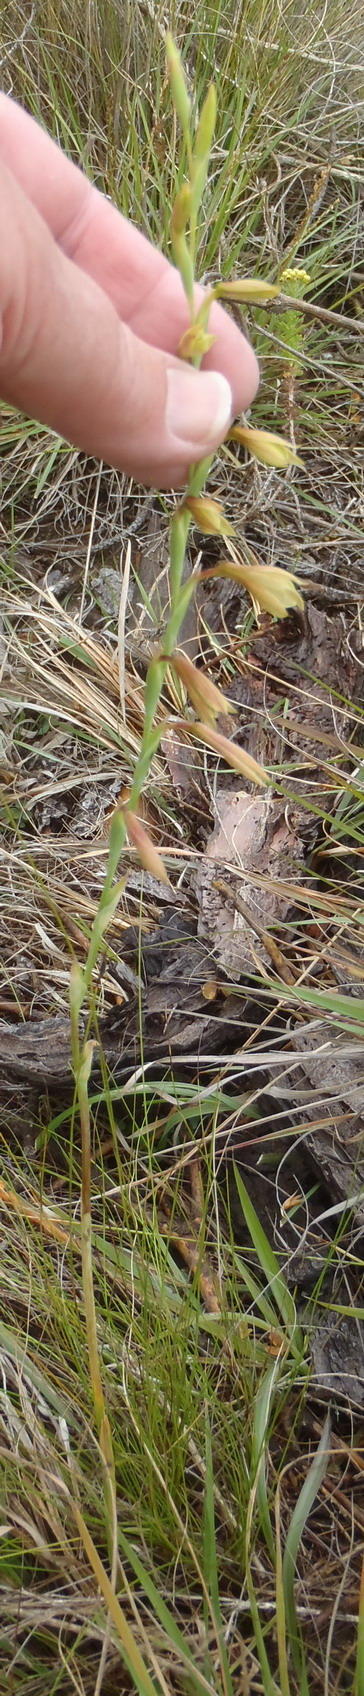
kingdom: Plantae
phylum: Tracheophyta
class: Liliopsida
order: Asparagales
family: Iridaceae
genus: Hesperantha
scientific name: Hesperantha radiata
